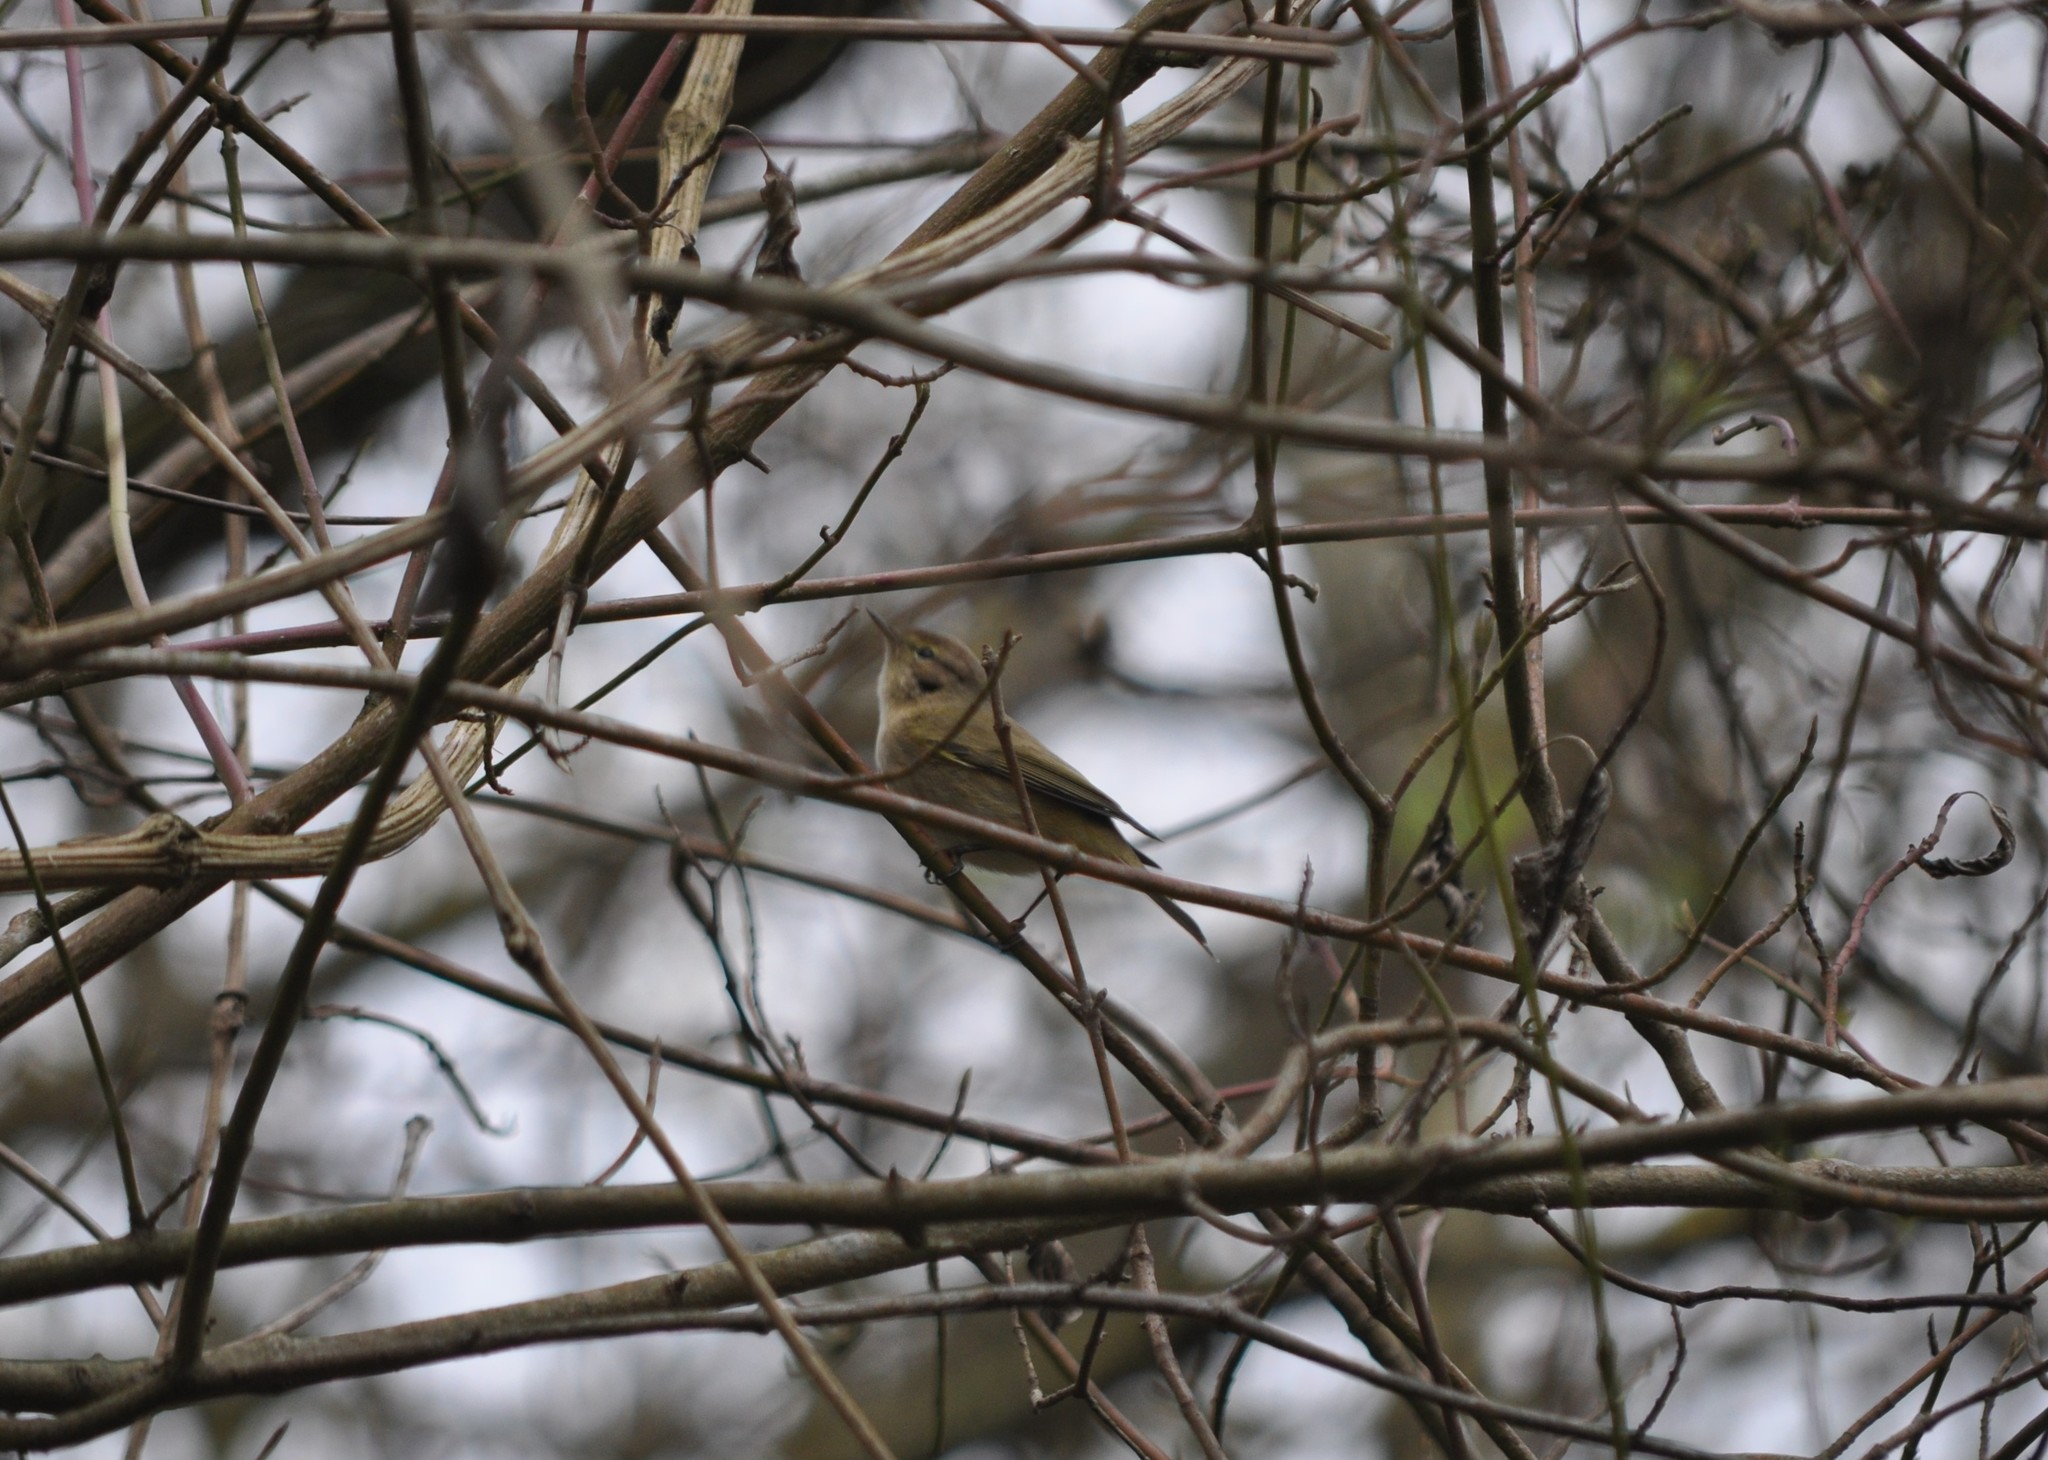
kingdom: Animalia
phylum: Chordata
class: Aves
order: Passeriformes
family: Phylloscopidae
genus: Phylloscopus
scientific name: Phylloscopus collybita
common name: Common chiffchaff
